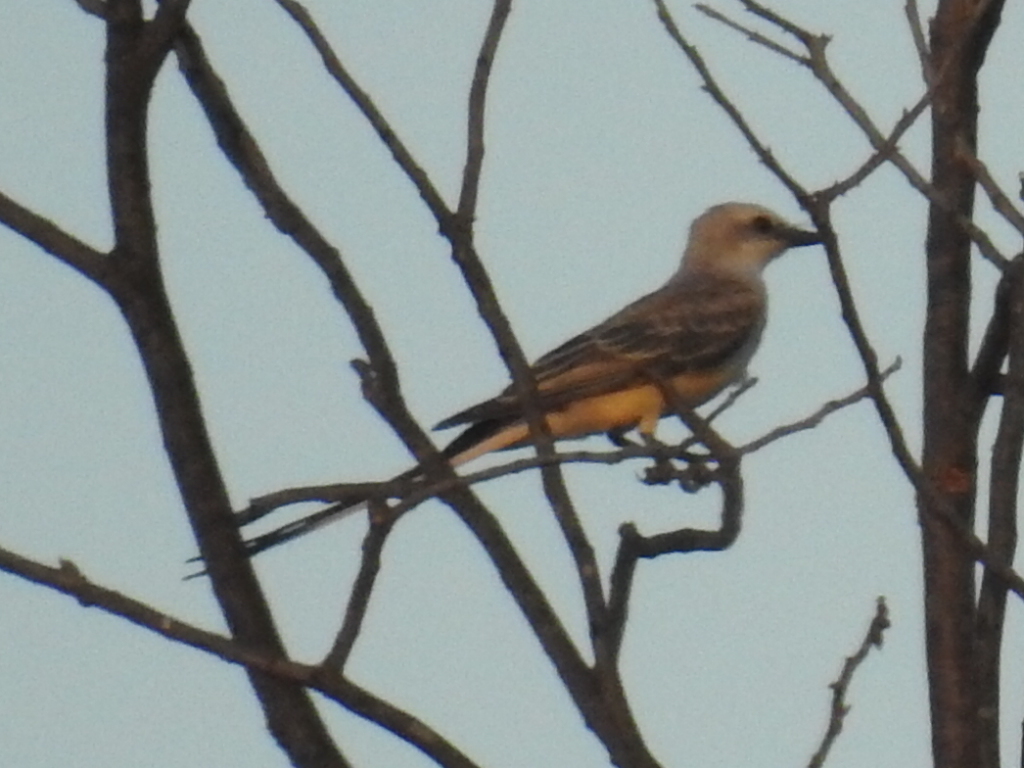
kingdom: Animalia
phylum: Chordata
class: Aves
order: Passeriformes
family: Tyrannidae
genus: Tyrannus
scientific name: Tyrannus forficatus
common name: Scissor-tailed flycatcher
